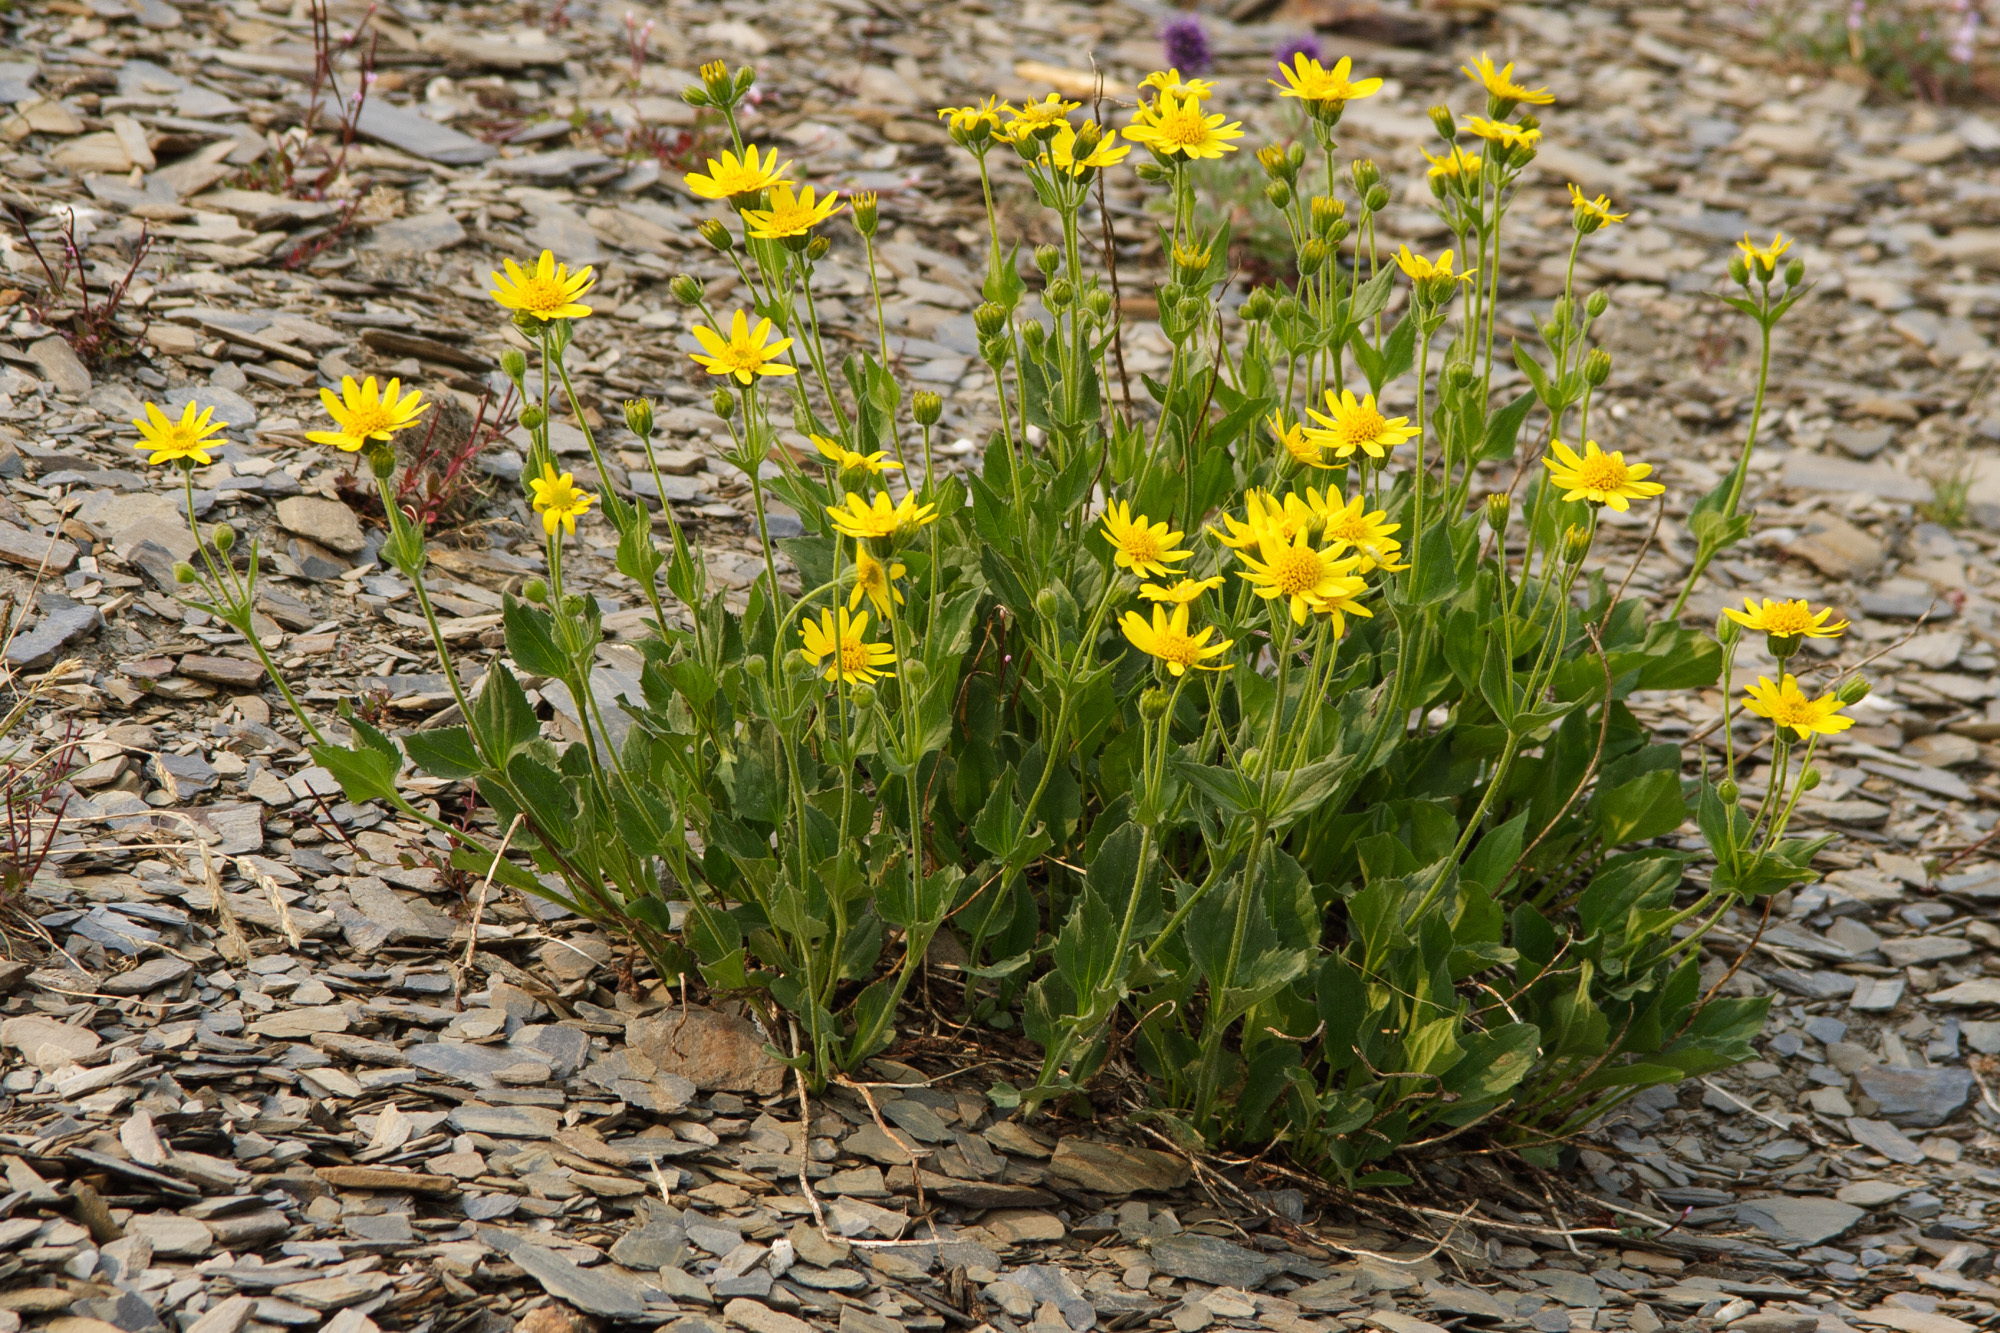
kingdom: Plantae
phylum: Tracheophyta
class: Magnoliopsida
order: Asterales
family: Asteraceae
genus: Arnica
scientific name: Arnica rydbergii
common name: Rydberg's arnica
